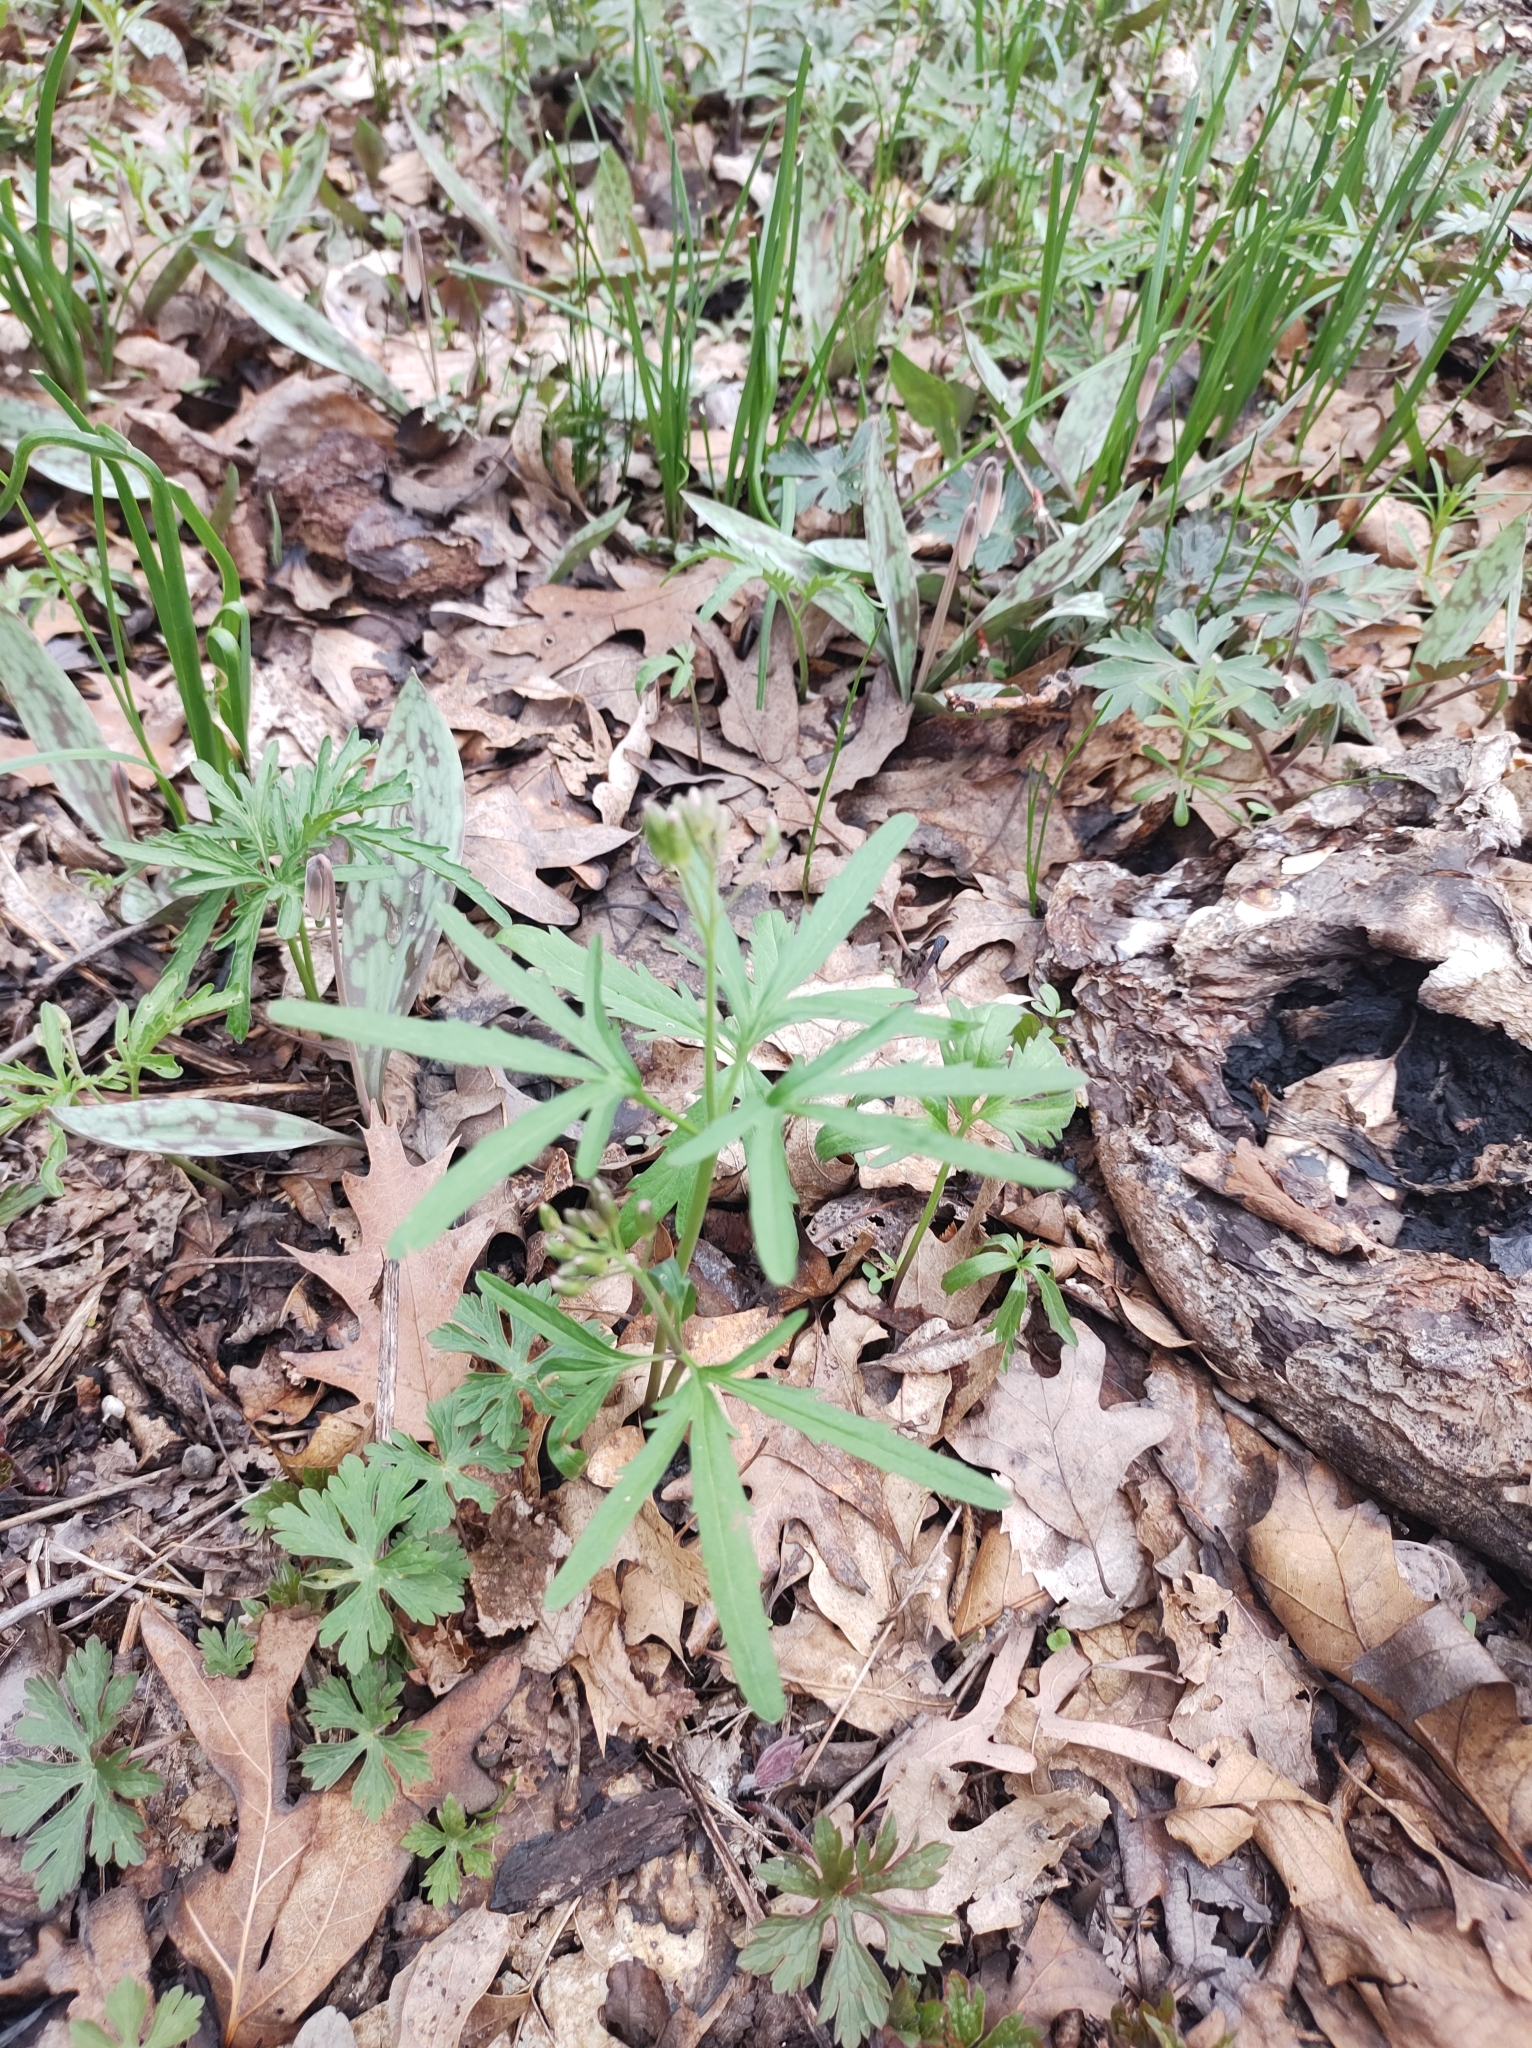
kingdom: Plantae
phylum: Tracheophyta
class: Magnoliopsida
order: Brassicales
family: Brassicaceae
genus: Cardamine
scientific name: Cardamine concatenata
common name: Cut-leaf toothcup
